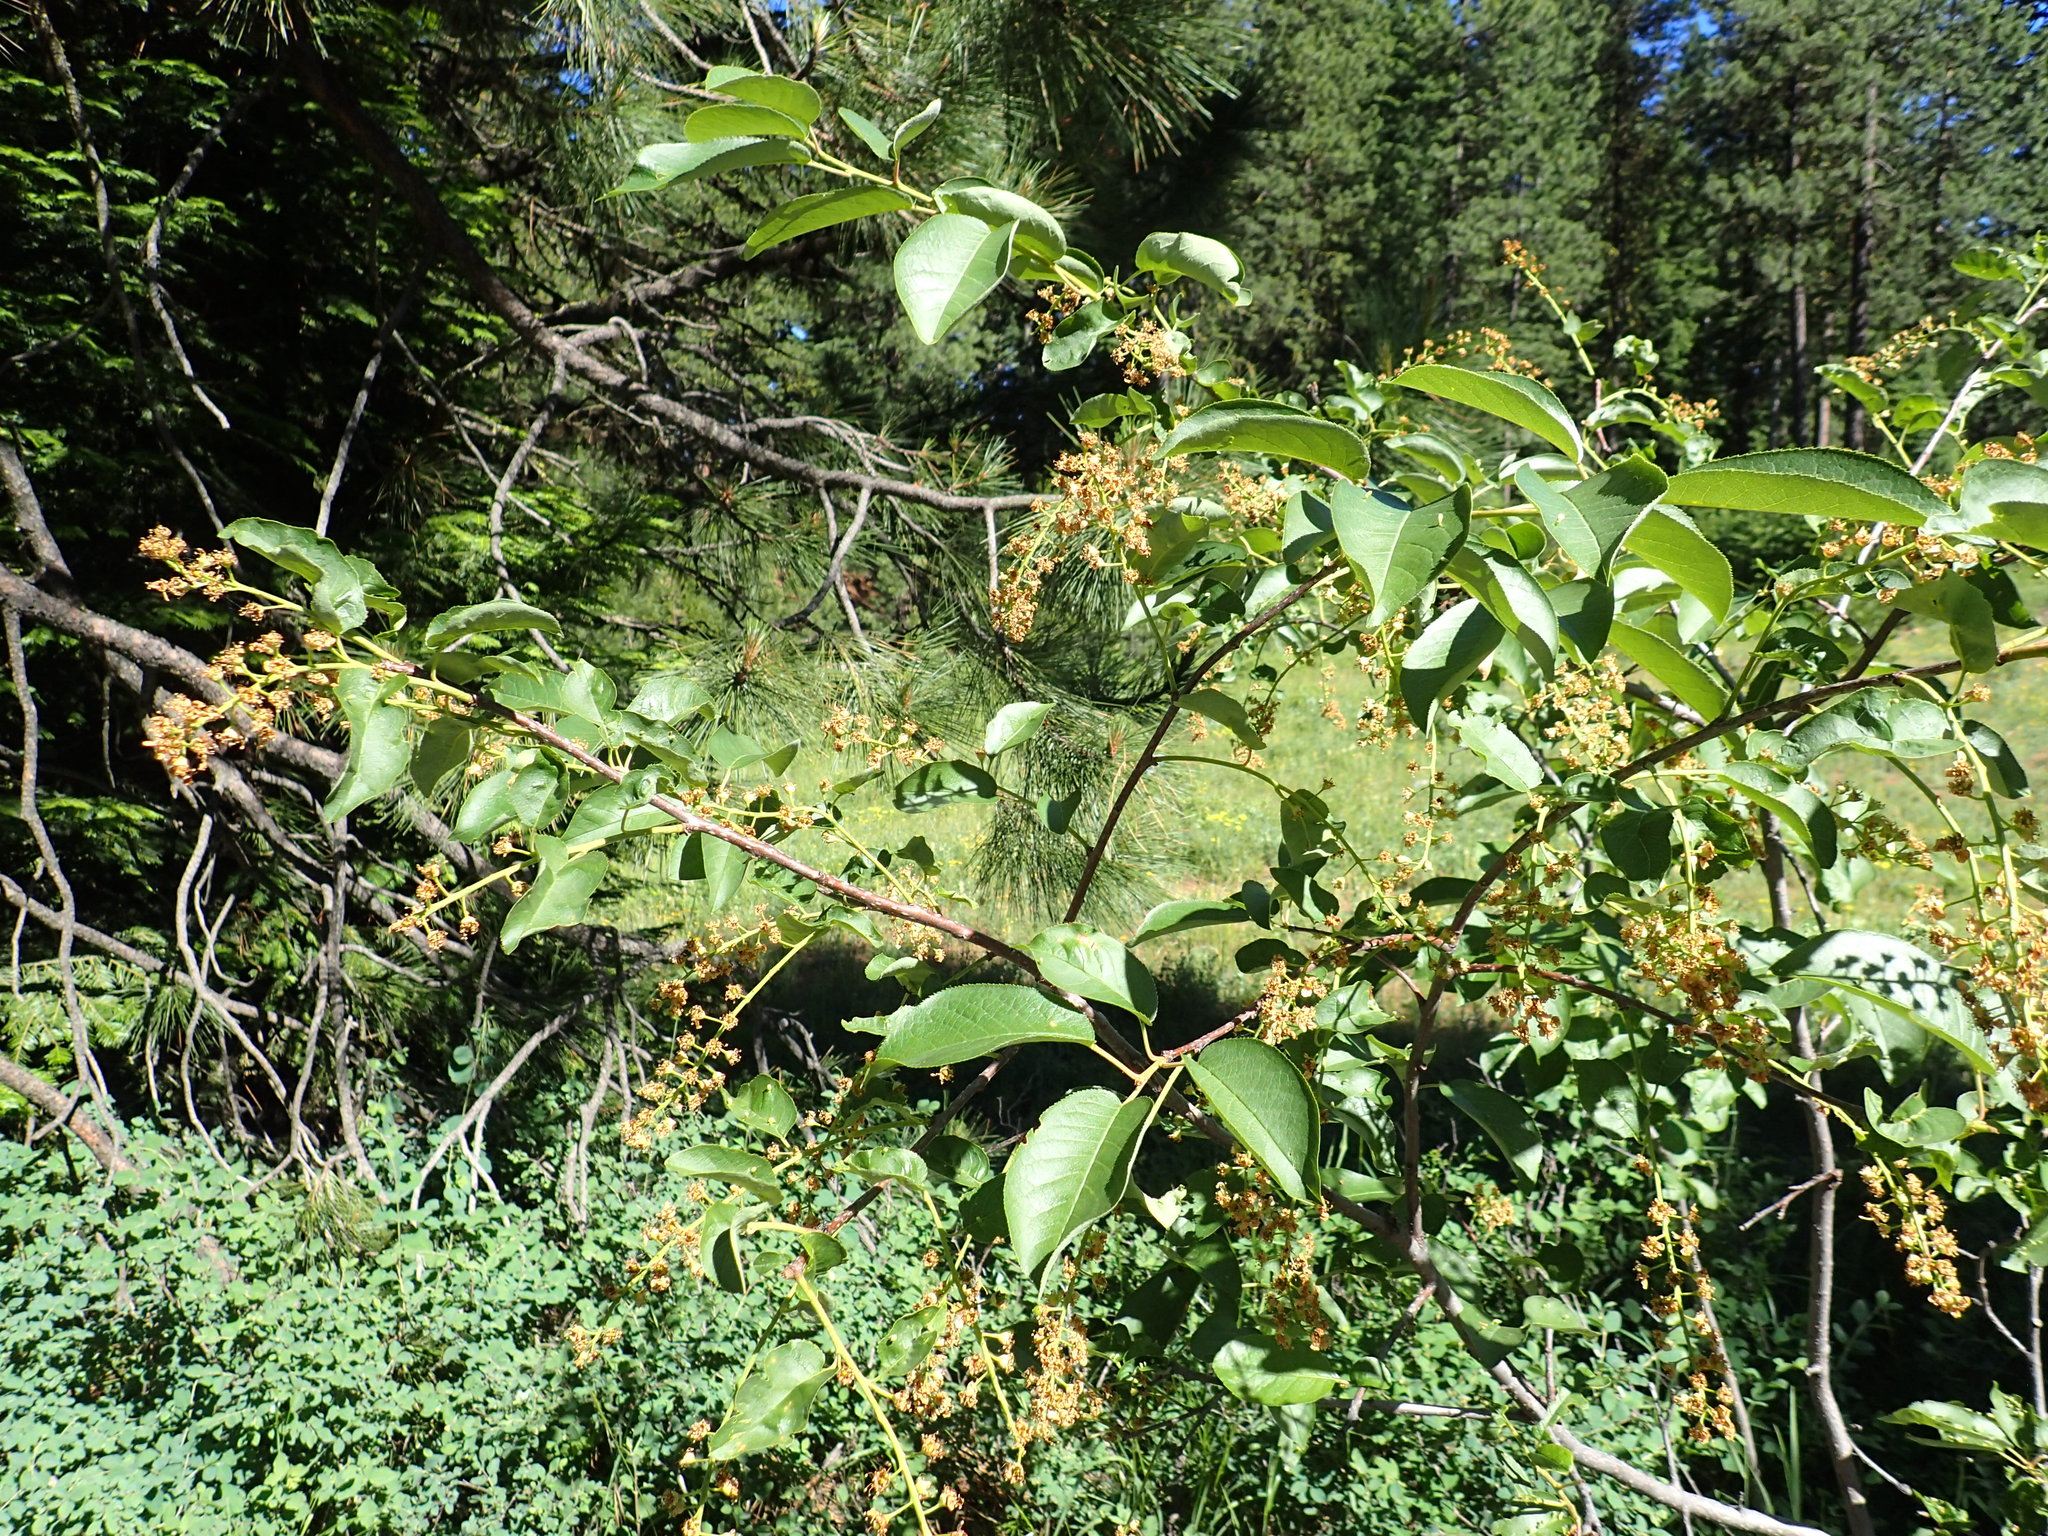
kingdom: Plantae
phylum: Tracheophyta
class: Magnoliopsida
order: Rosales
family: Rosaceae
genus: Prunus
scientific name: Prunus virginiana
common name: Chokecherry
